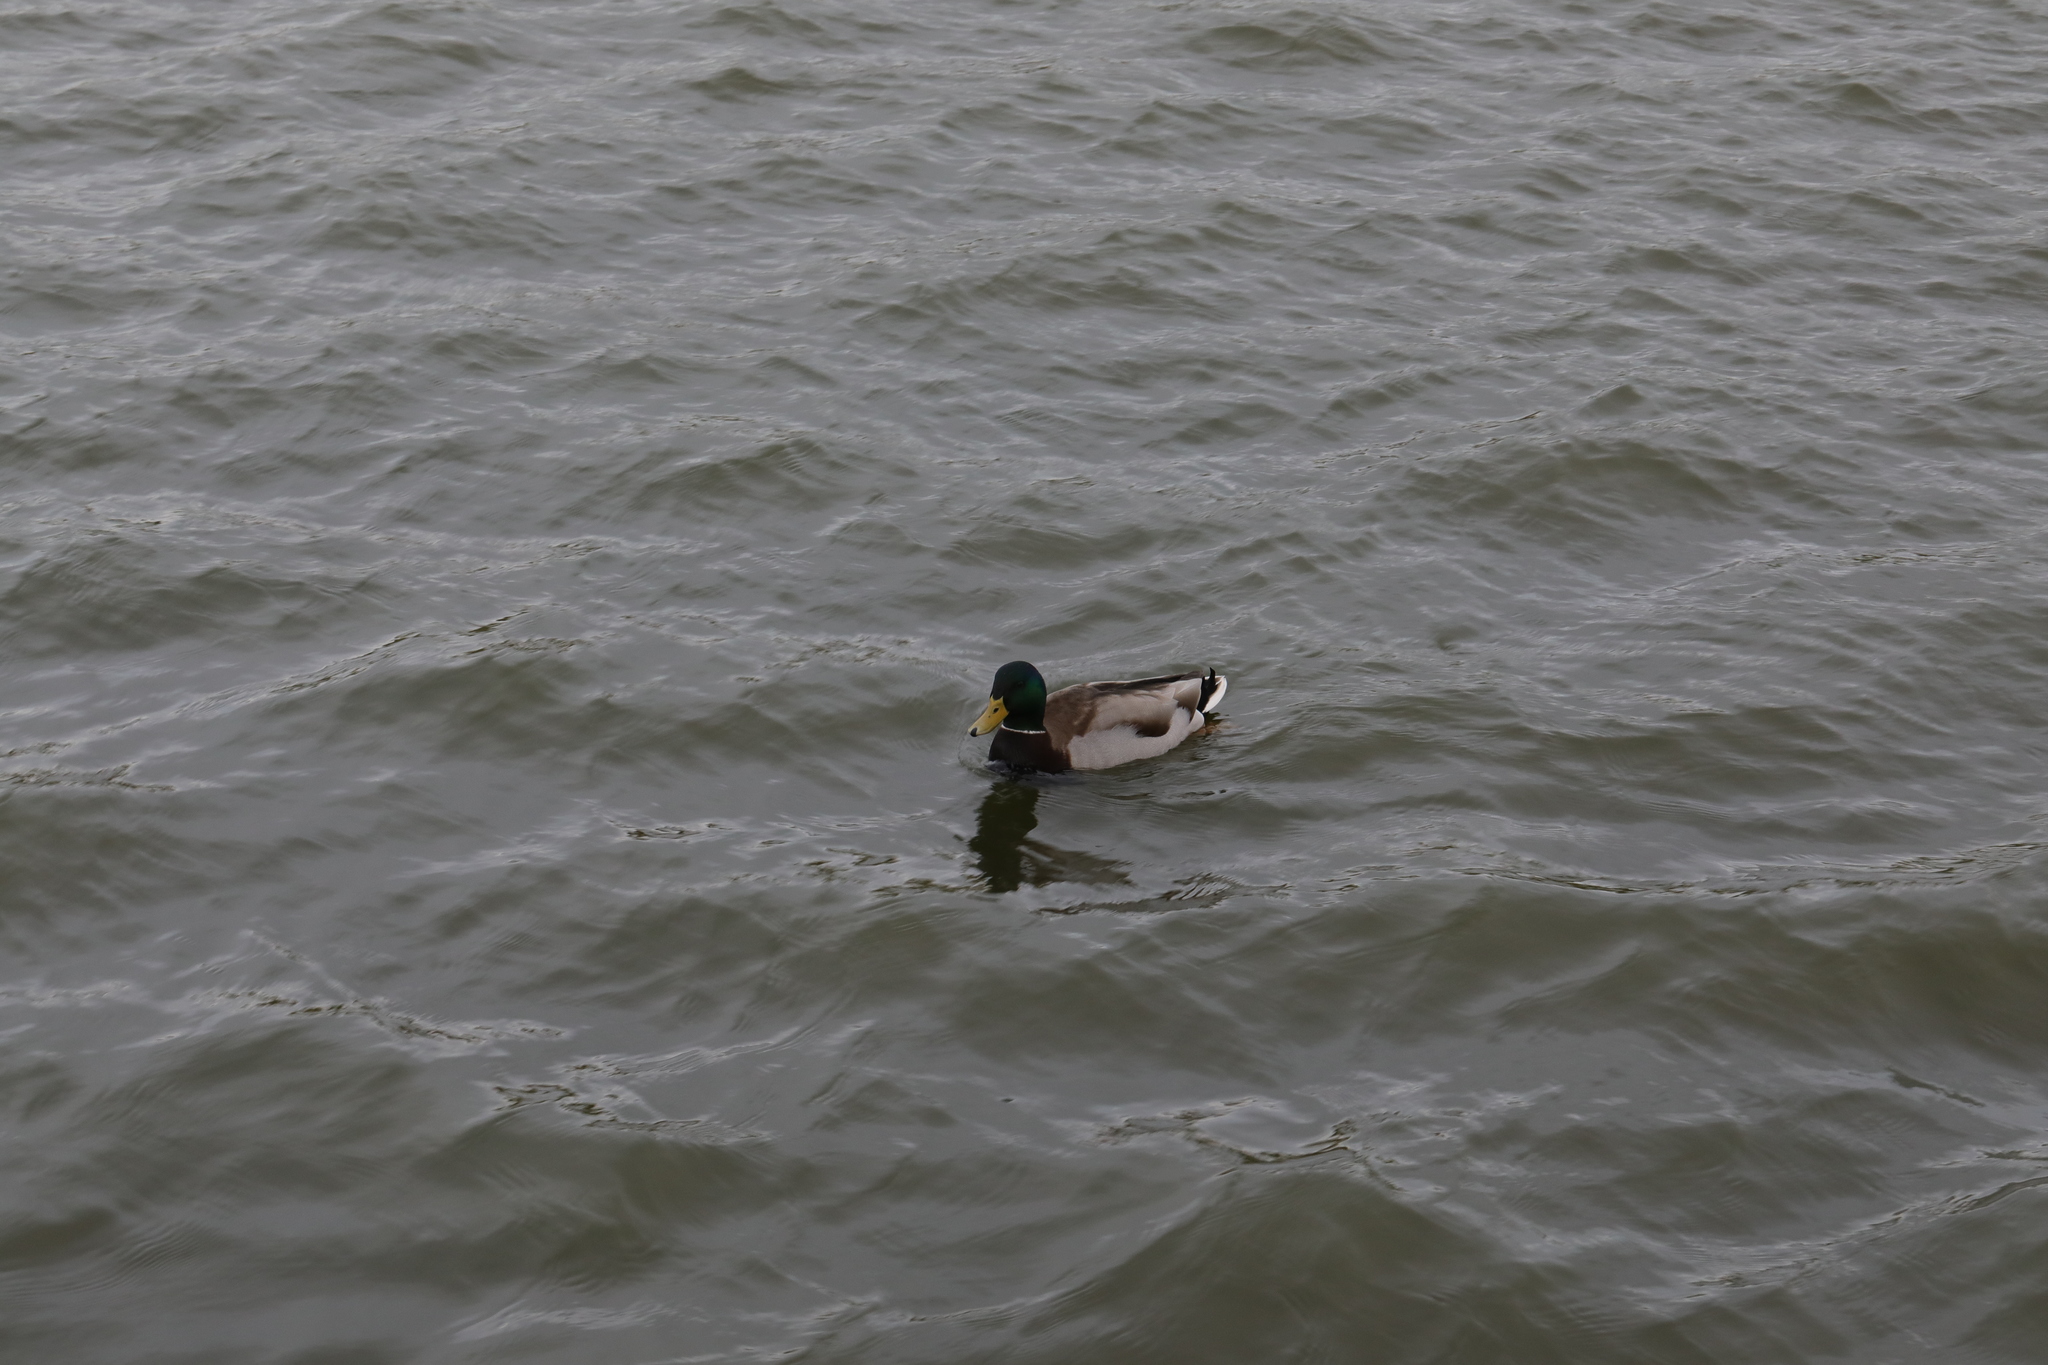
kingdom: Animalia
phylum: Chordata
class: Aves
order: Anseriformes
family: Anatidae
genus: Anas
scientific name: Anas platyrhynchos
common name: Mallard
